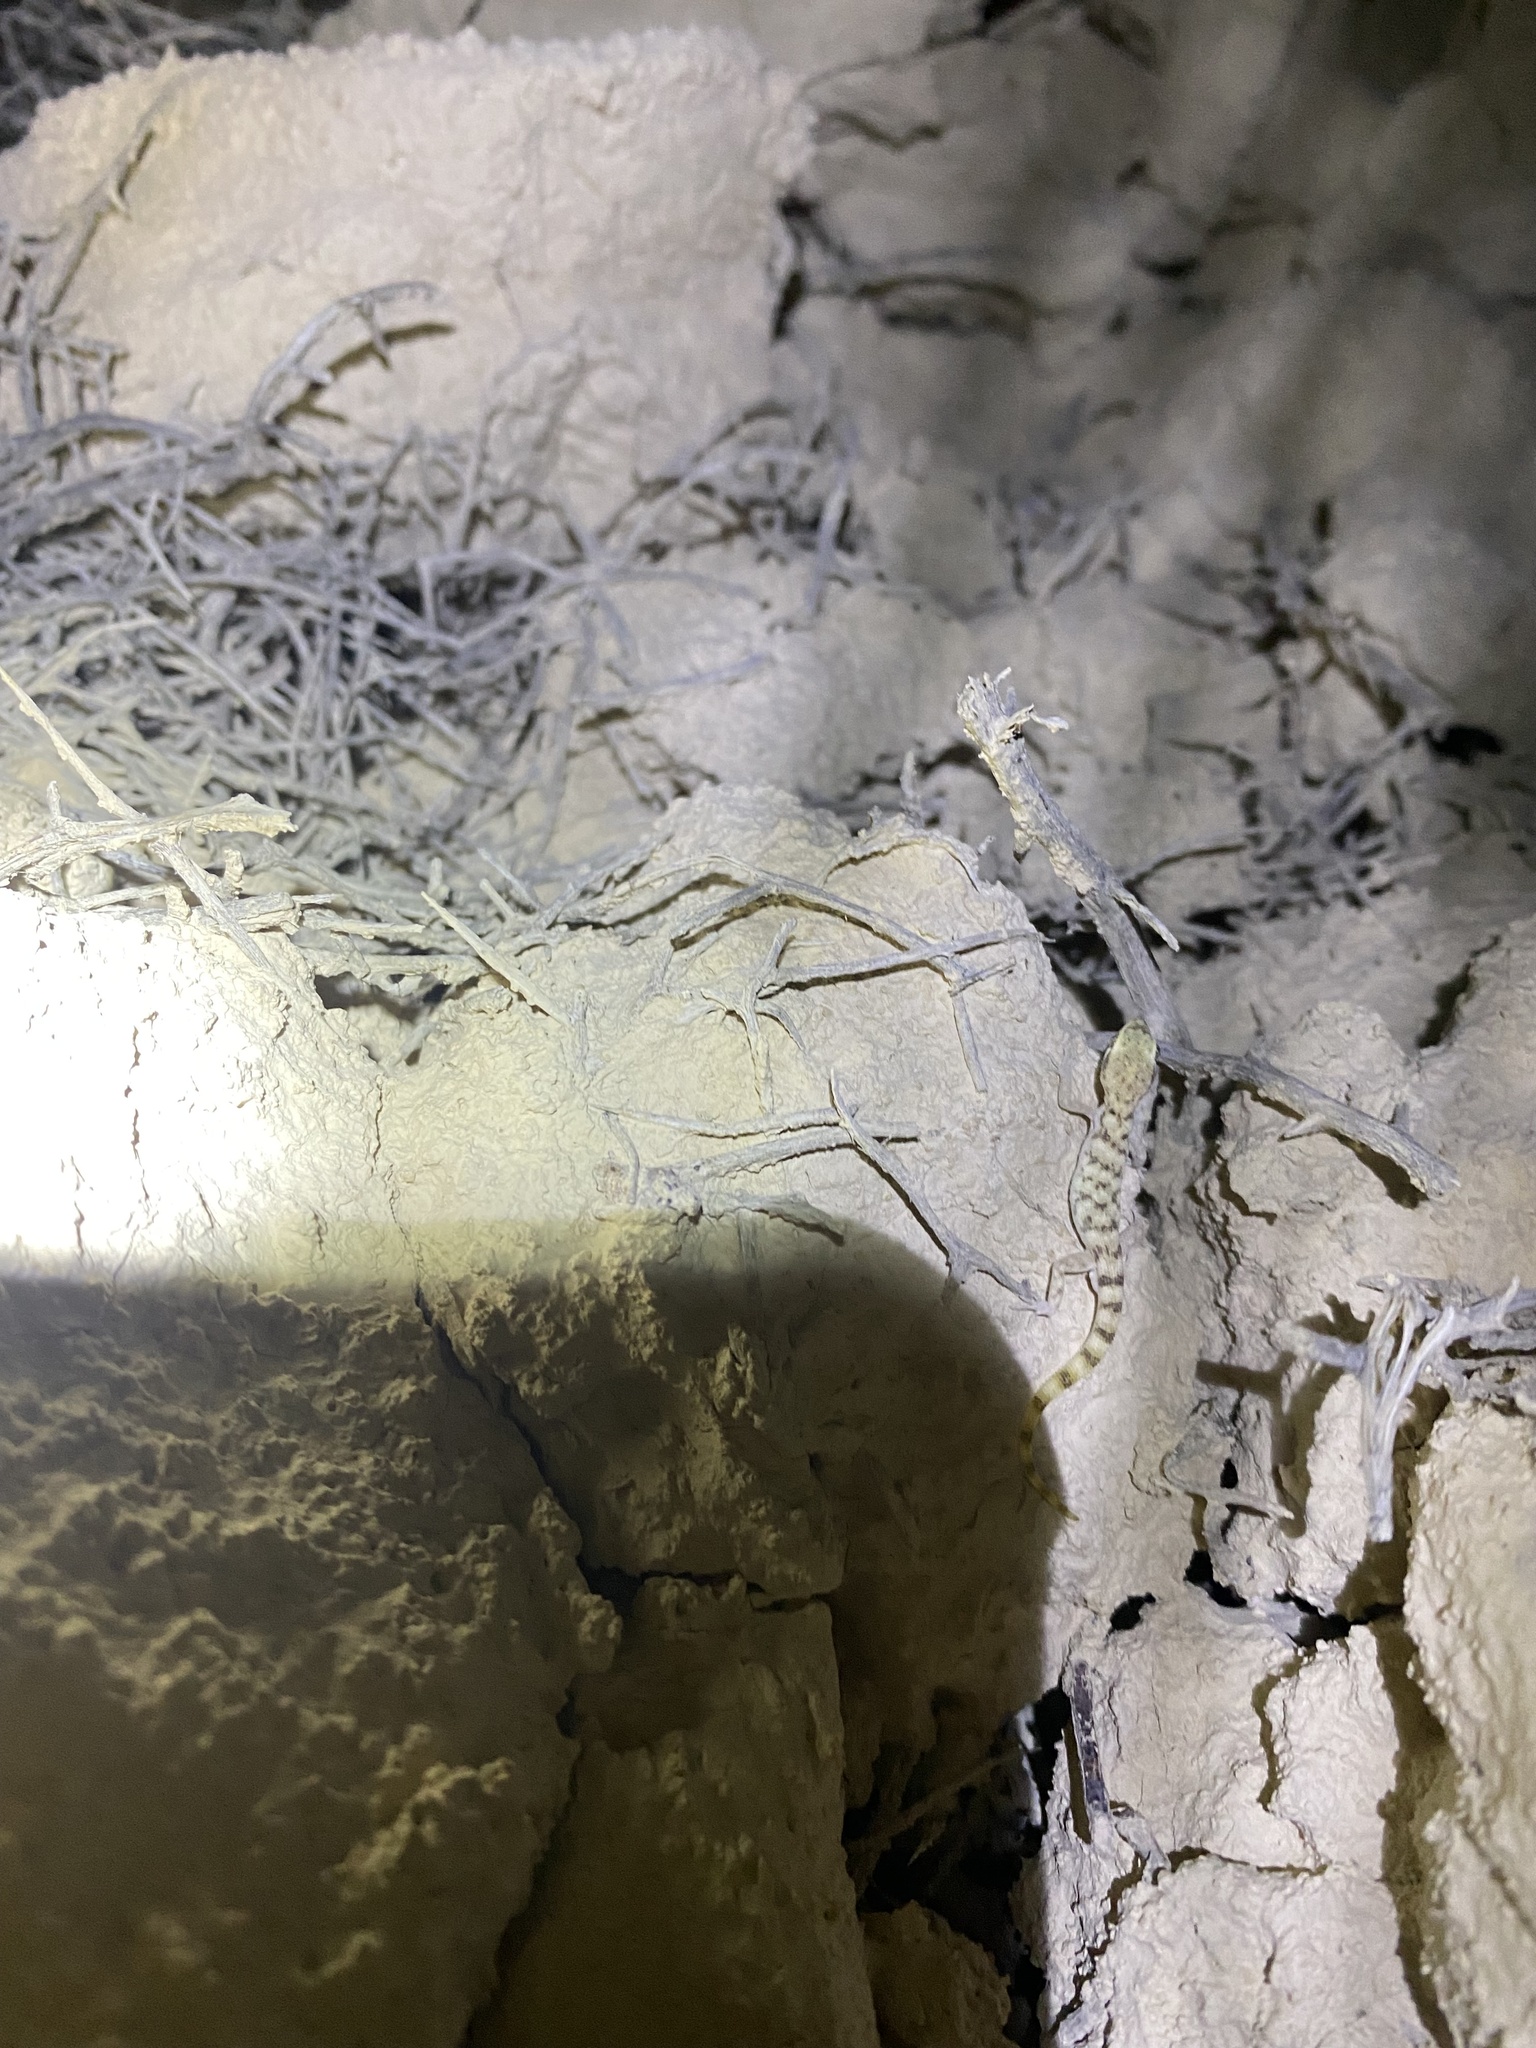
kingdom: Animalia
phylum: Chordata
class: Squamata
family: Gekkonidae
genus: Tropiocolotes
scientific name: Tropiocolotes hormozganensis
